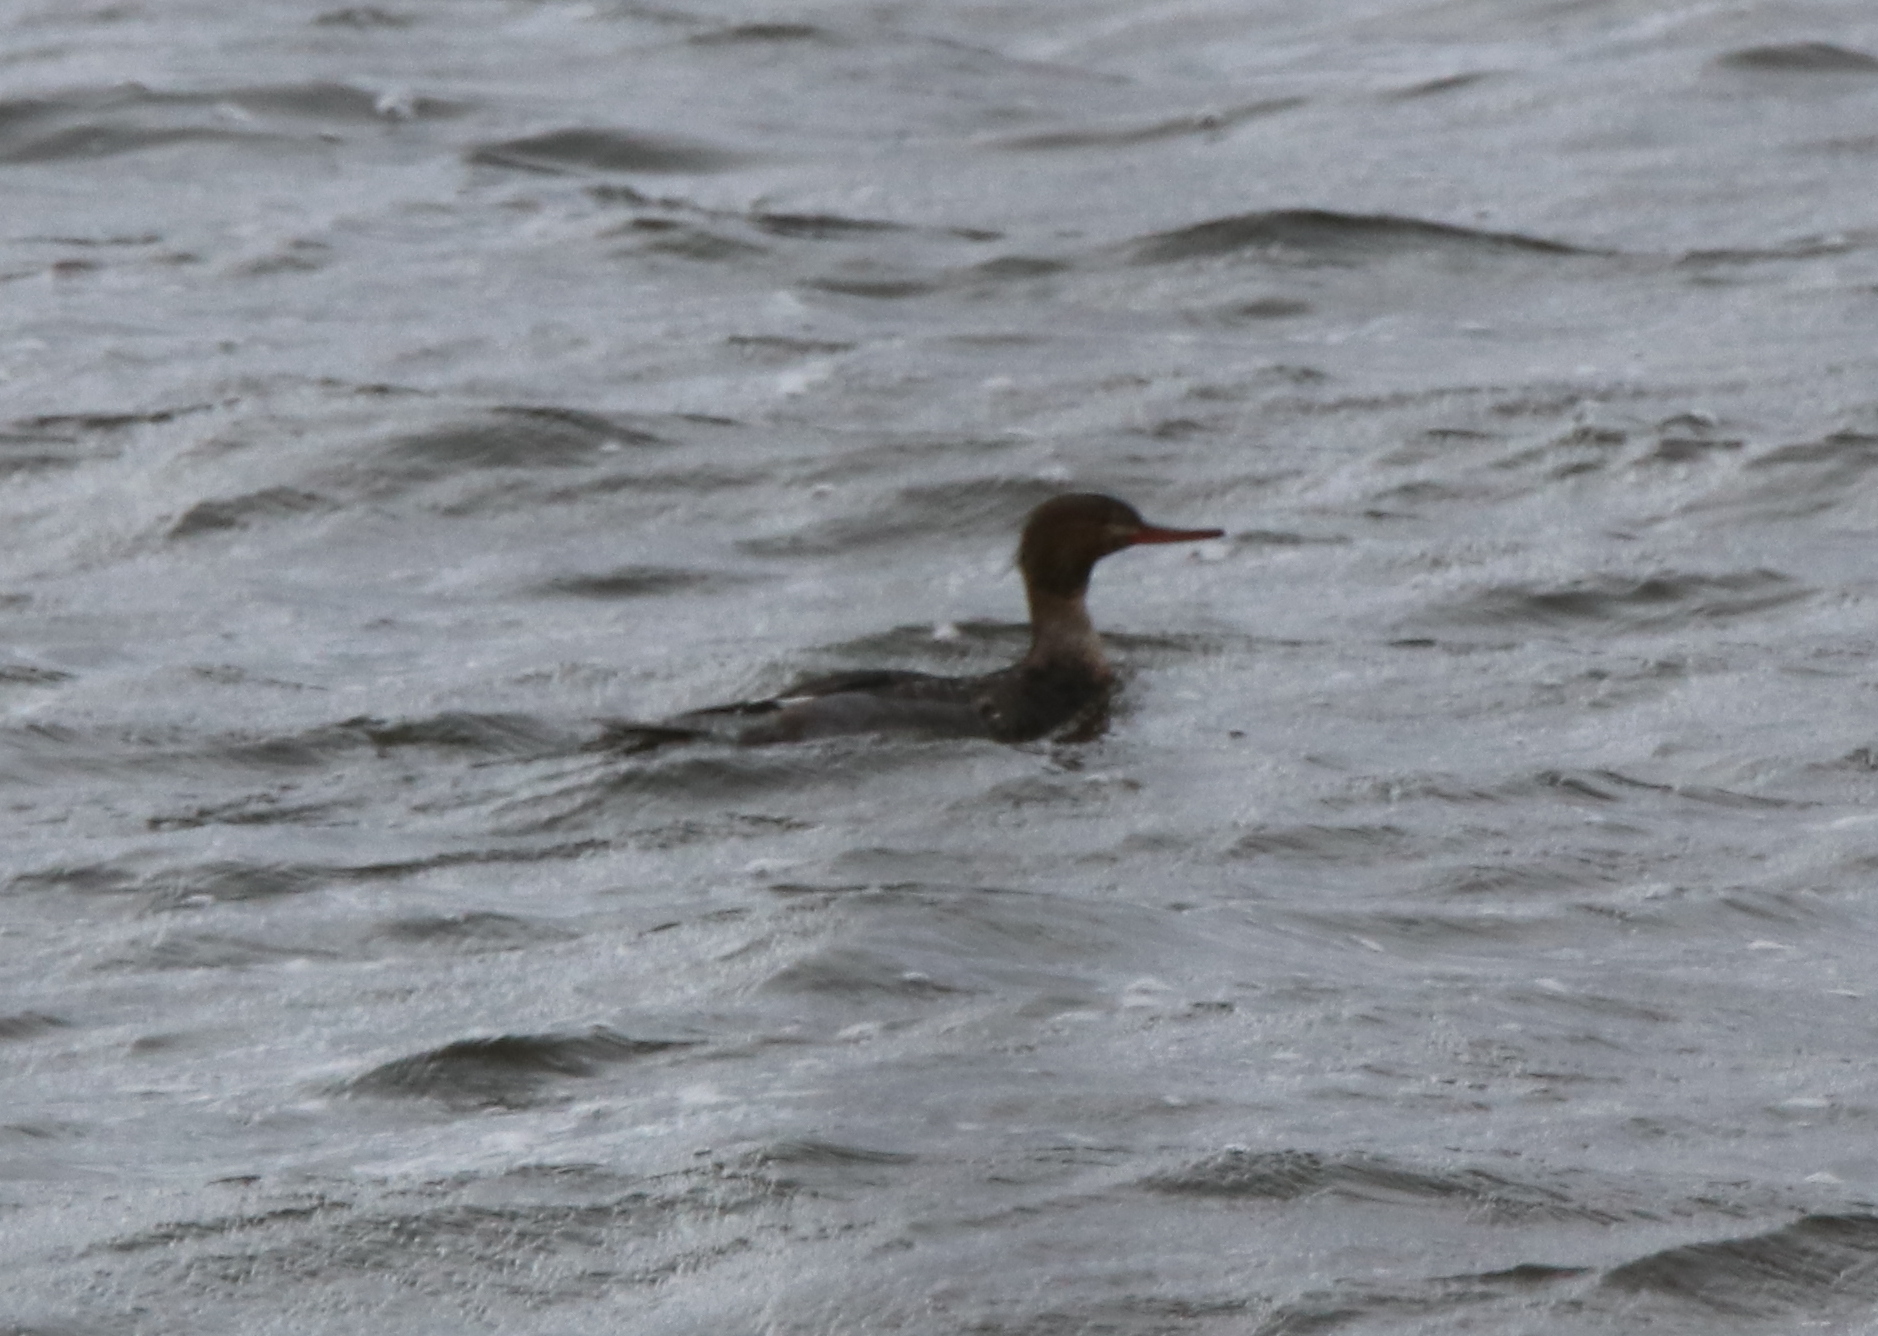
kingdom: Animalia
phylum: Chordata
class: Aves
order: Anseriformes
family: Anatidae
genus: Mergus
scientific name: Mergus serrator
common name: Red-breasted merganser
